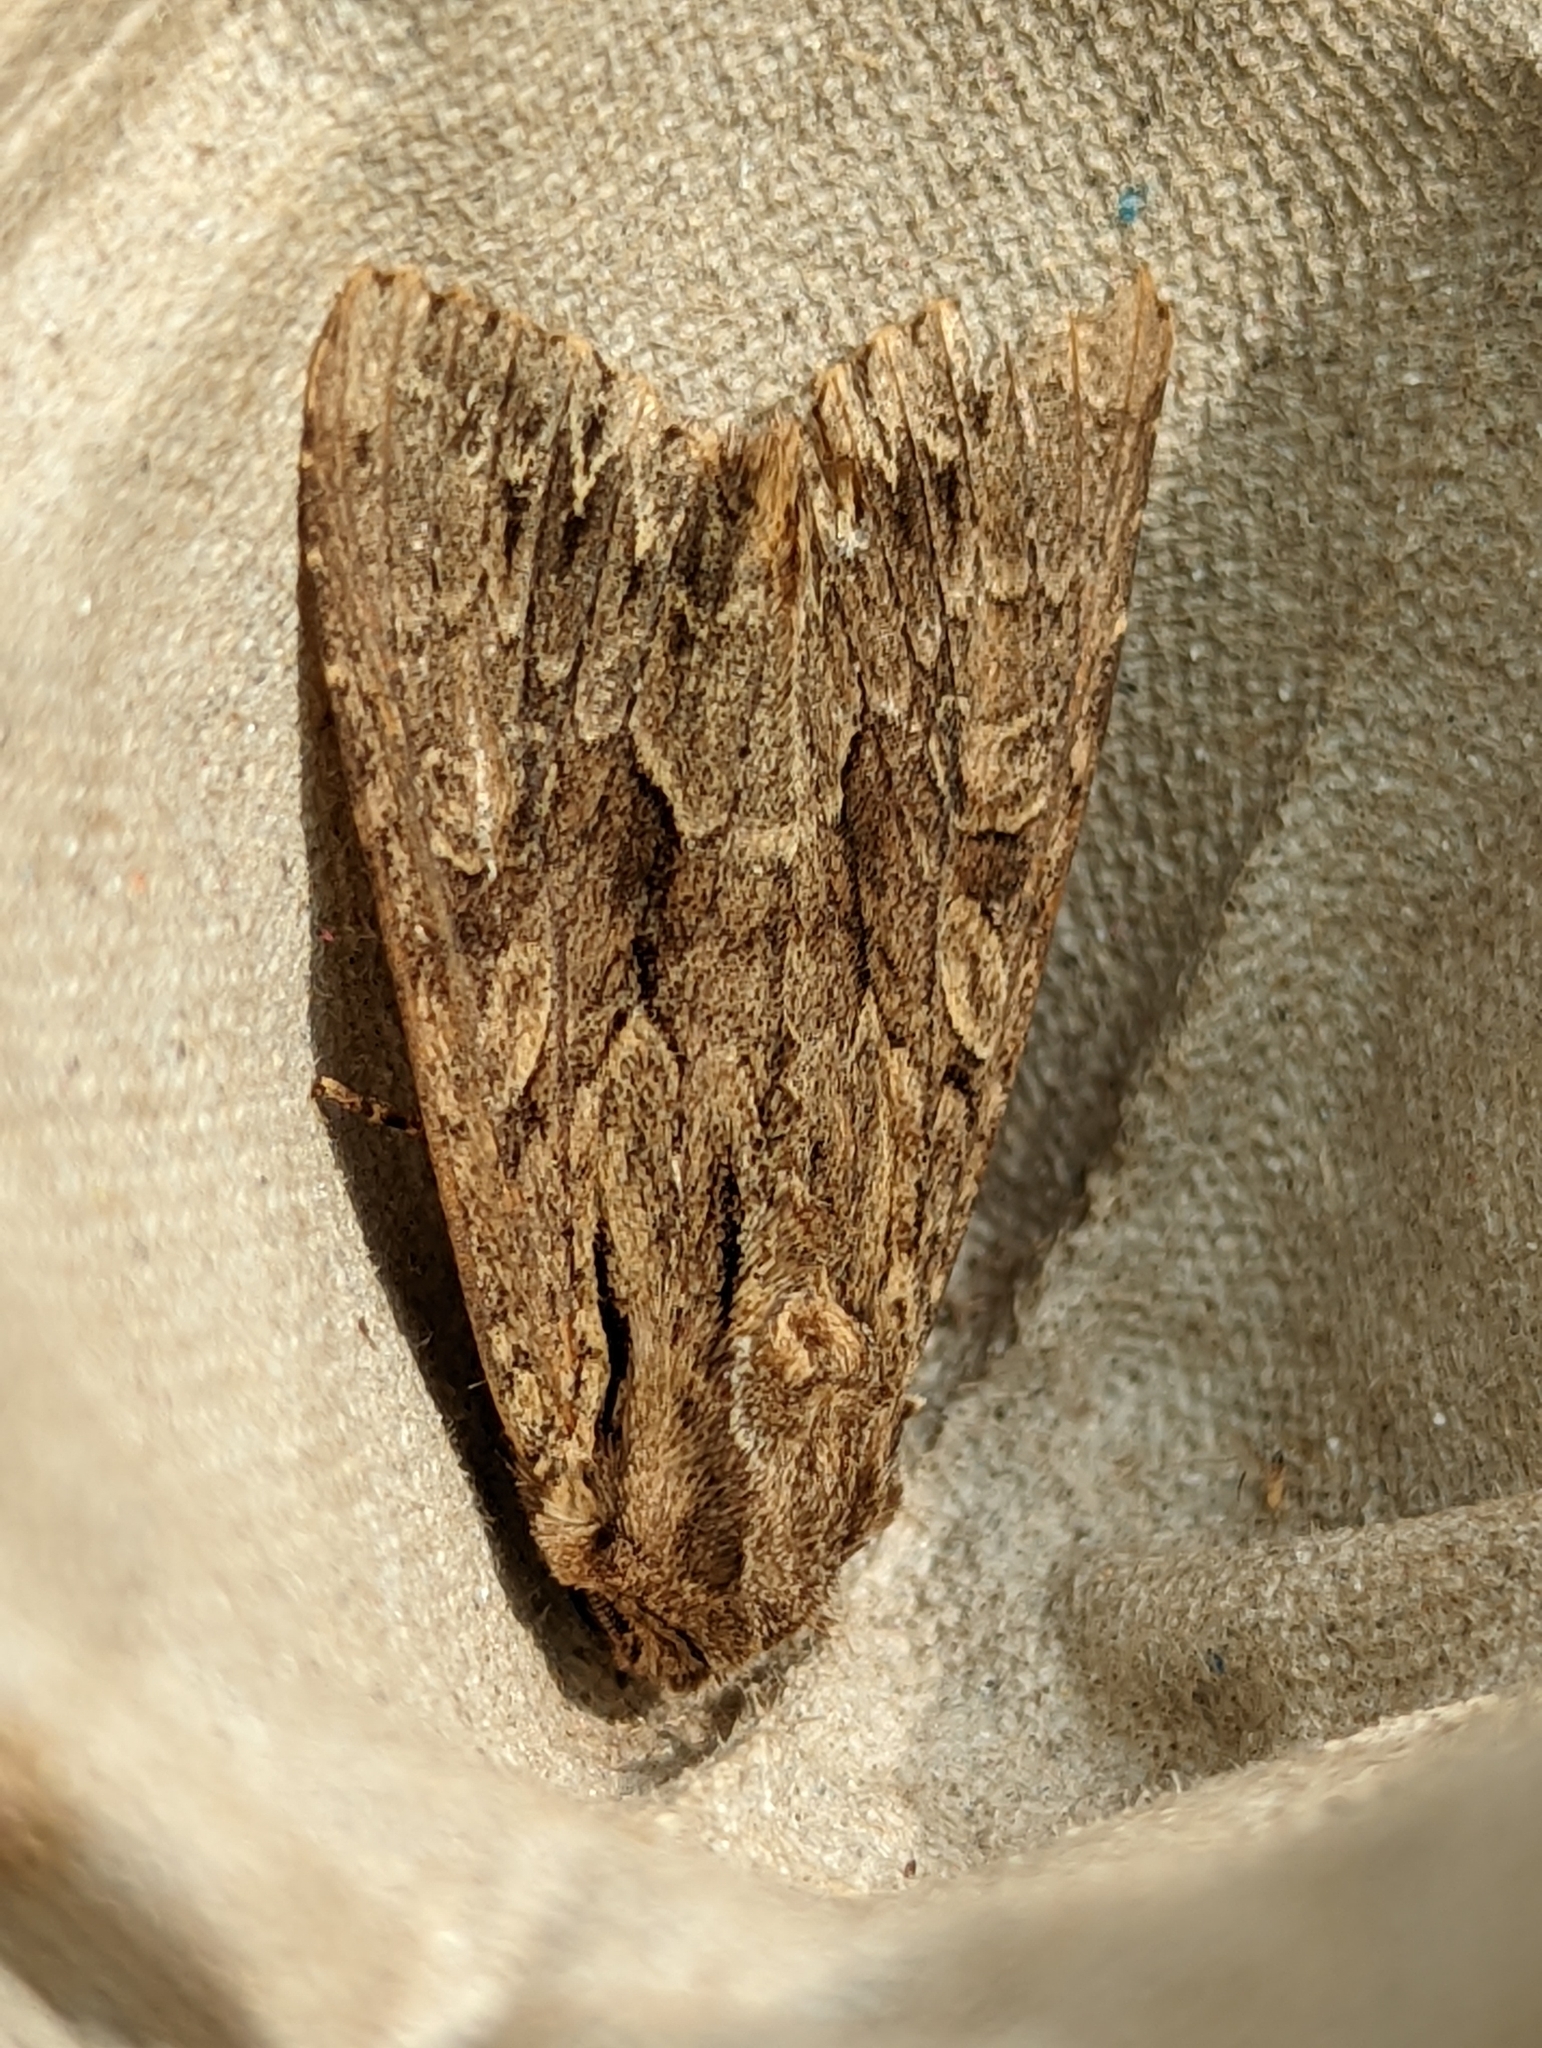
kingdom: Animalia
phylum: Arthropoda
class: Insecta
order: Lepidoptera
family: Noctuidae
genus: Apamea
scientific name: Apamea monoglypha
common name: Dark arches
